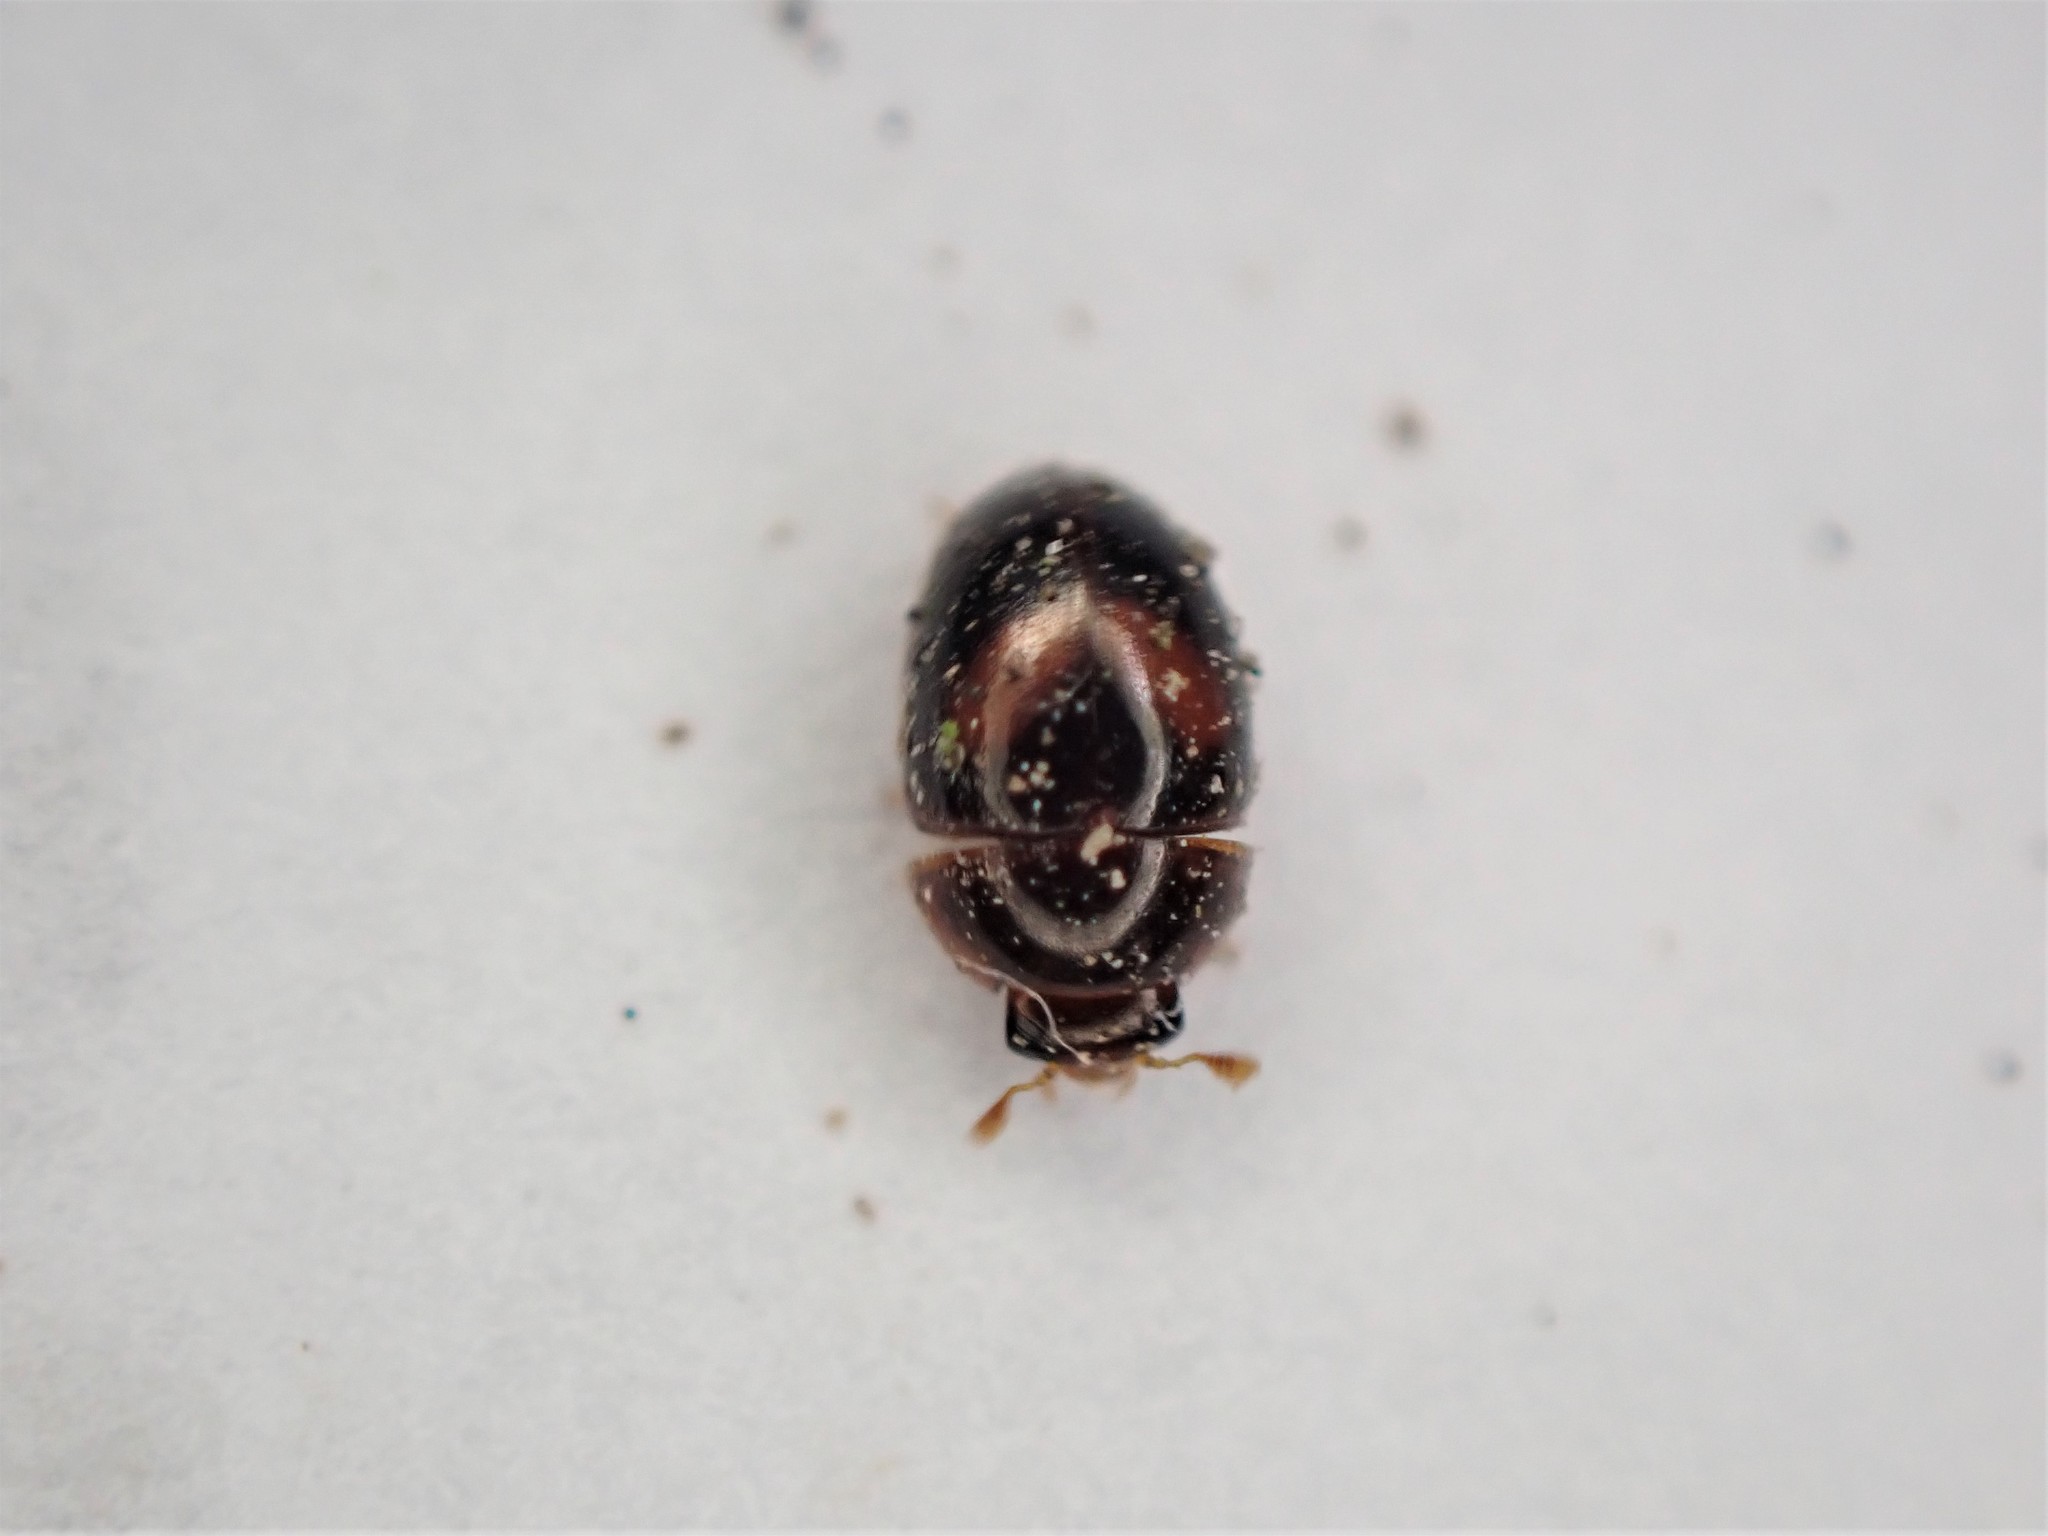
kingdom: Animalia
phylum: Arthropoda
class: Insecta
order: Coleoptera
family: Phalacridae
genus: Austroporus
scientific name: Austroporus
